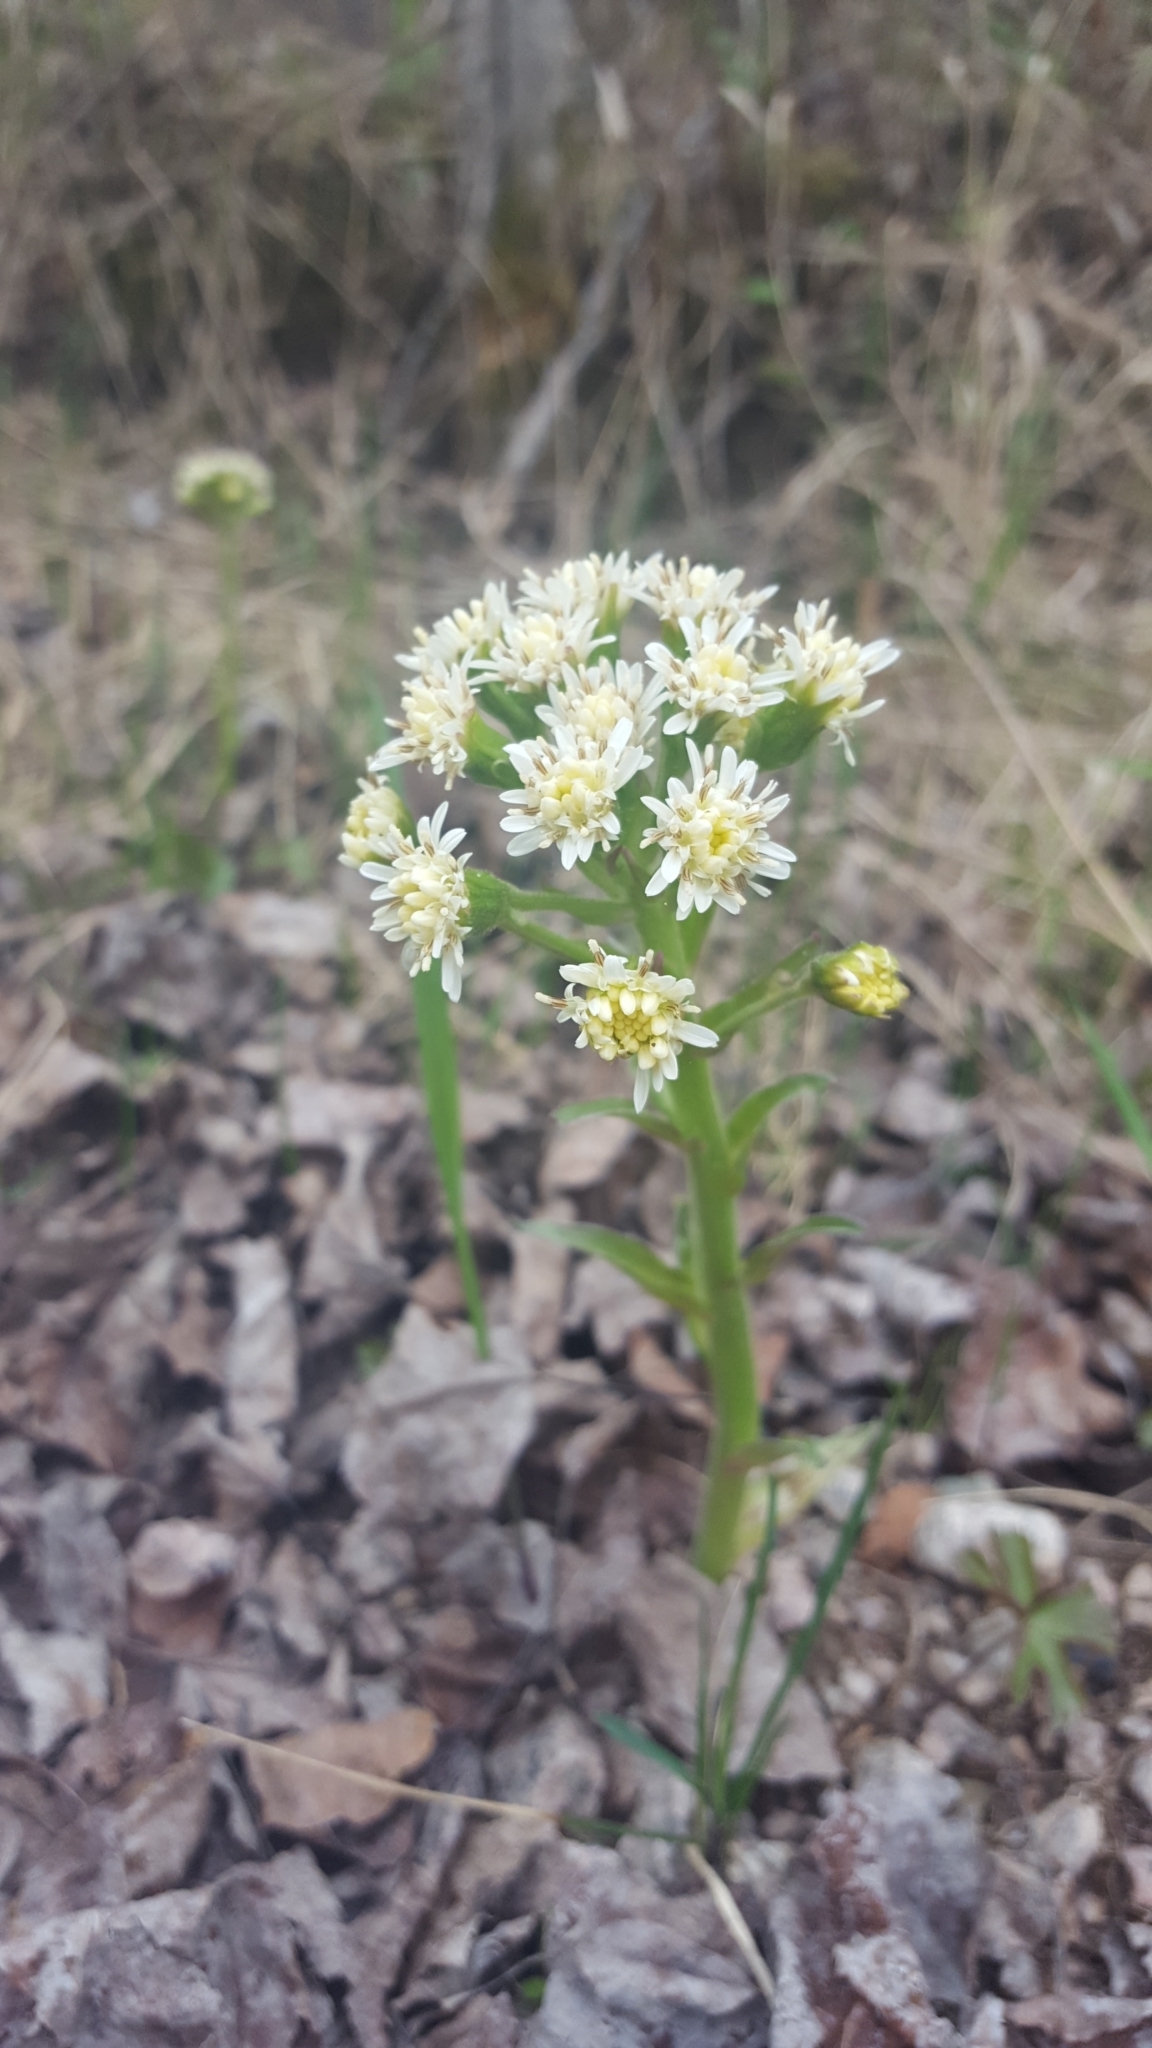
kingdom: Plantae
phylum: Tracheophyta
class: Magnoliopsida
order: Asterales
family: Asteraceae
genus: Petasites
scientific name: Petasites frigidus
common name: Arctic butterbur
